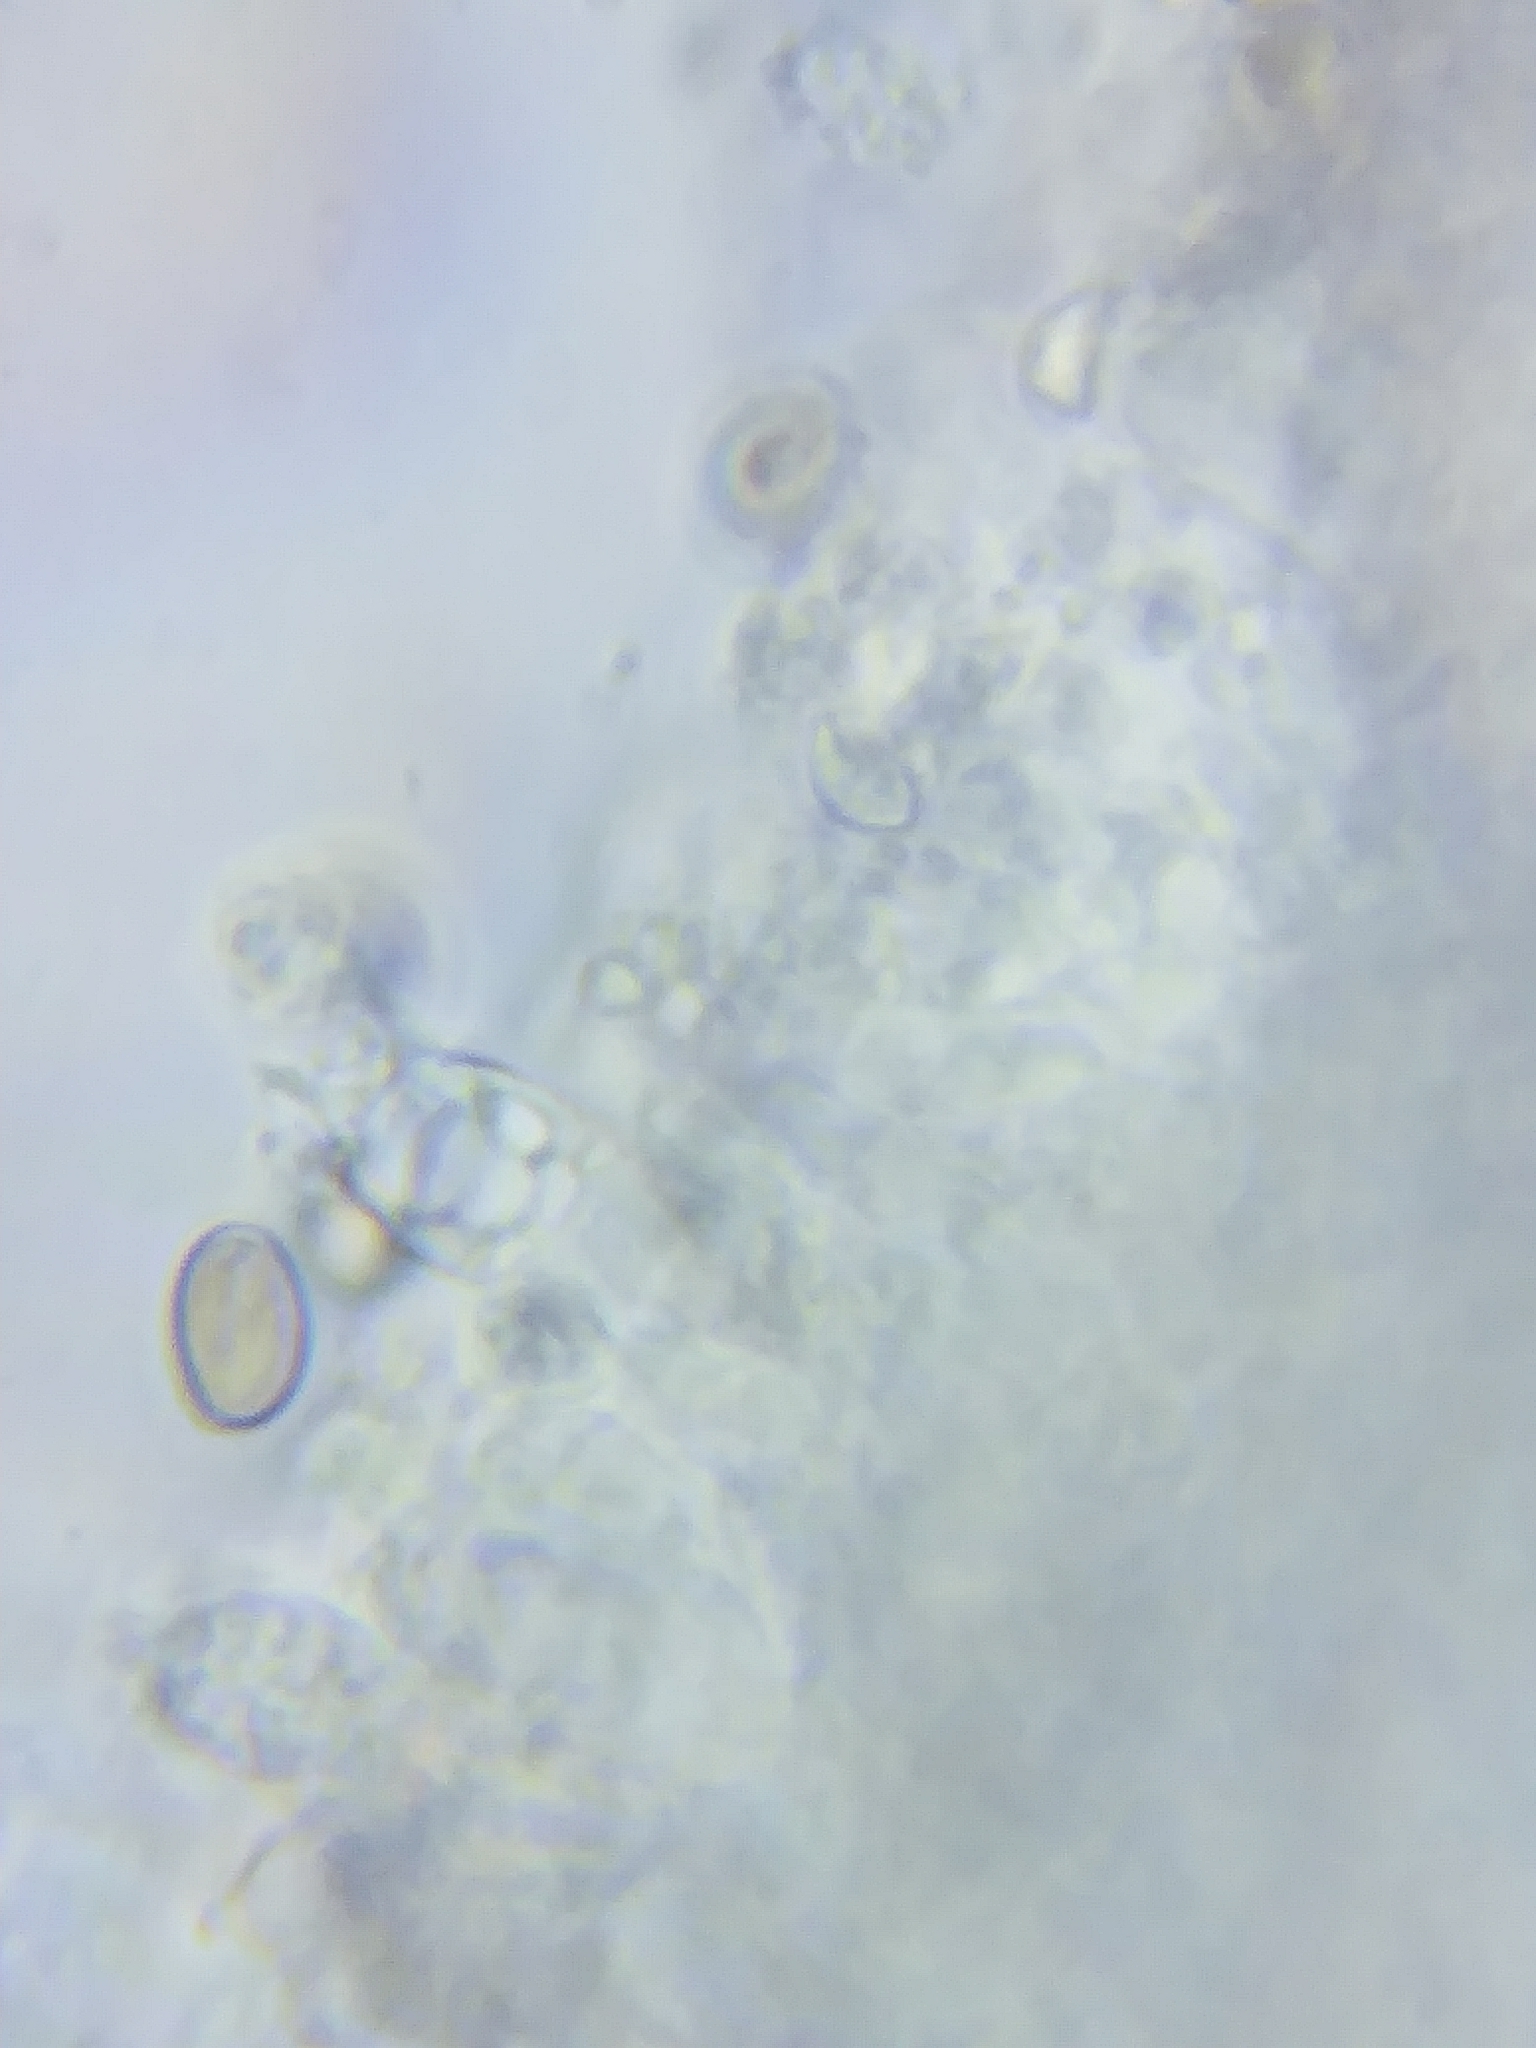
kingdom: Fungi
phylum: Basidiomycota
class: Agaricomycetes
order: Agaricales
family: Strophariaceae
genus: Pholiota
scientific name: Pholiota squarrosa
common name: Shaggy pholiota
